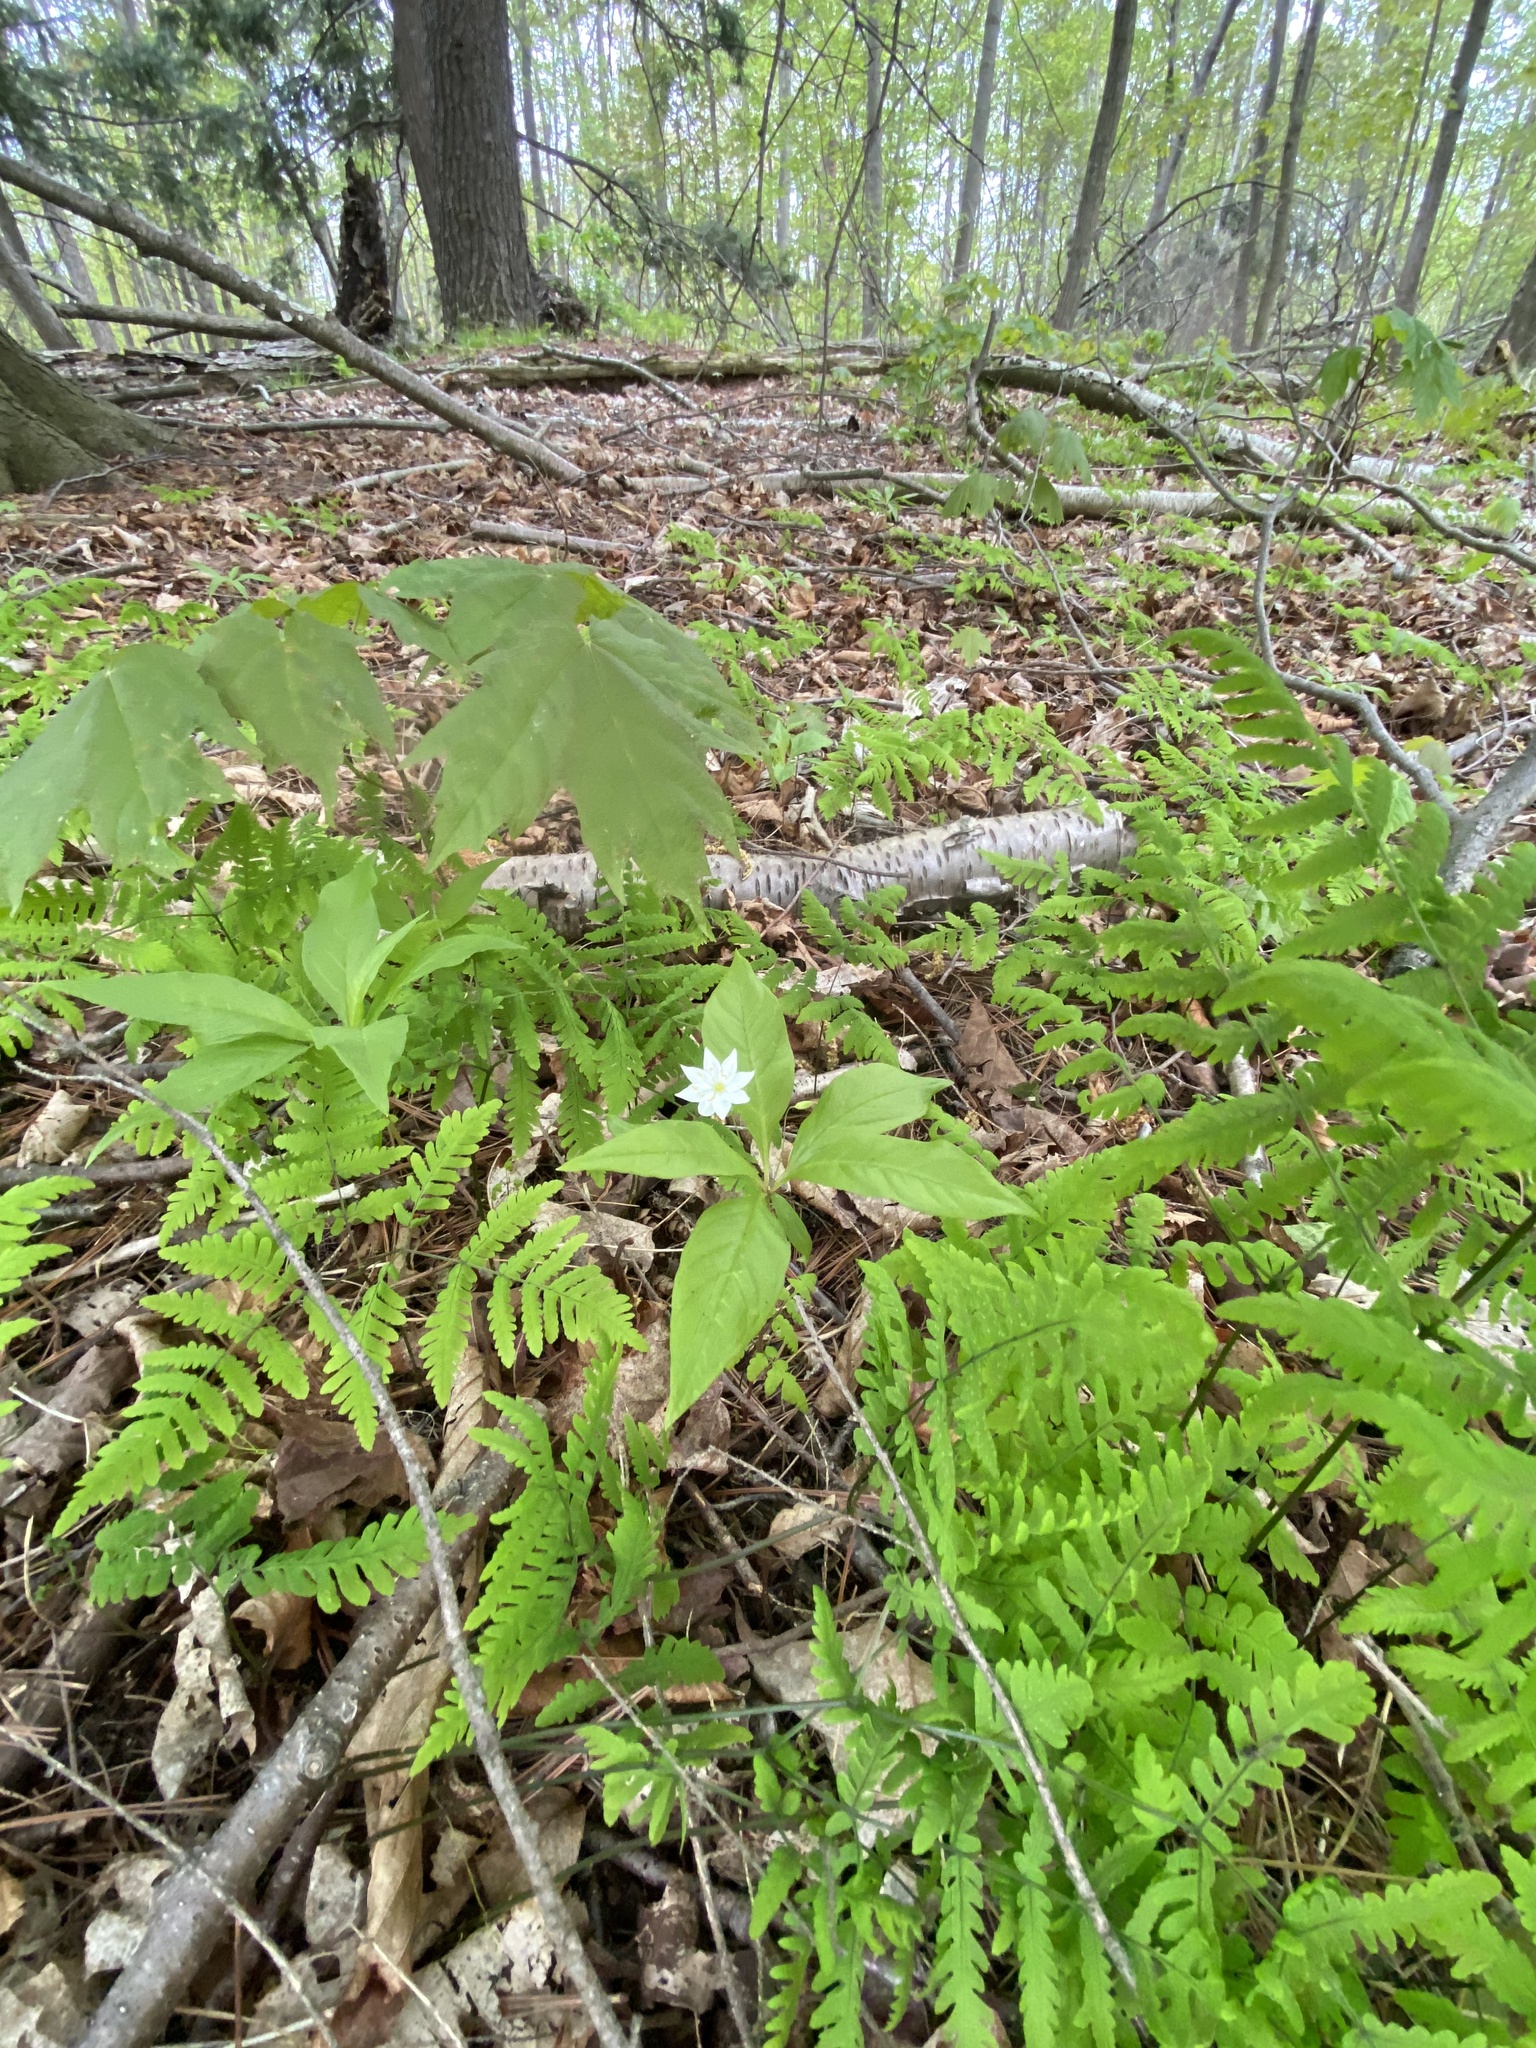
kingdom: Plantae
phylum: Tracheophyta
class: Magnoliopsida
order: Ericales
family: Primulaceae
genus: Lysimachia
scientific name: Lysimachia borealis
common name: American starflower
